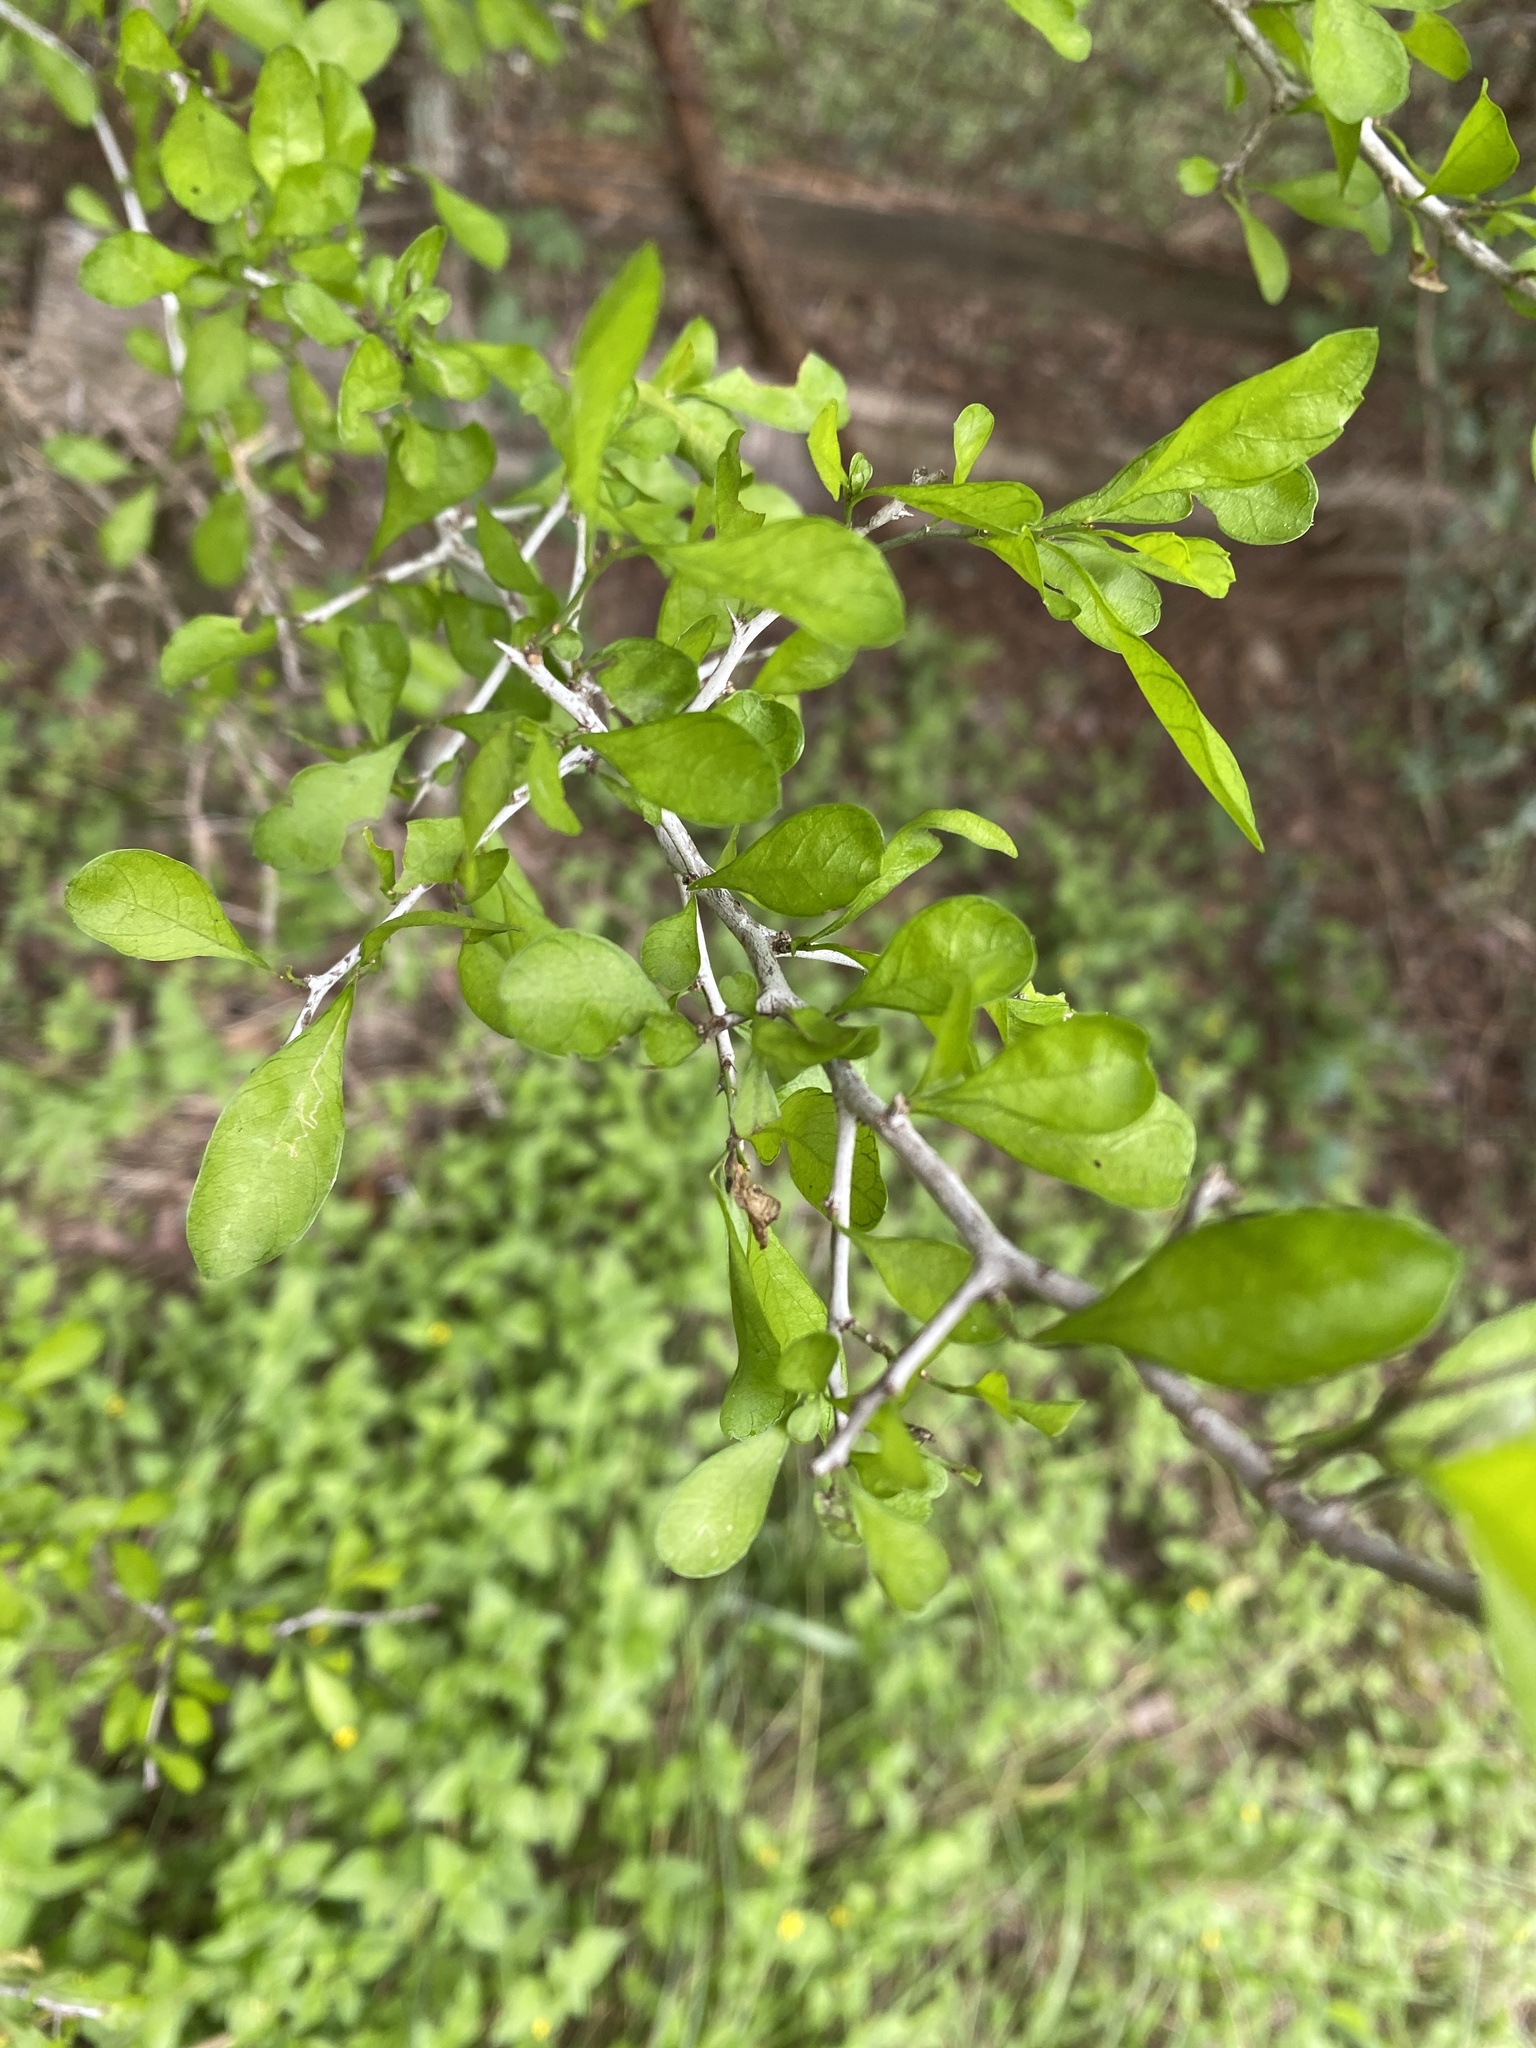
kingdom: Plantae
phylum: Tracheophyta
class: Magnoliopsida
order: Rosales
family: Rhamnaceae
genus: Condalia
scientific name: Condalia hookeri
